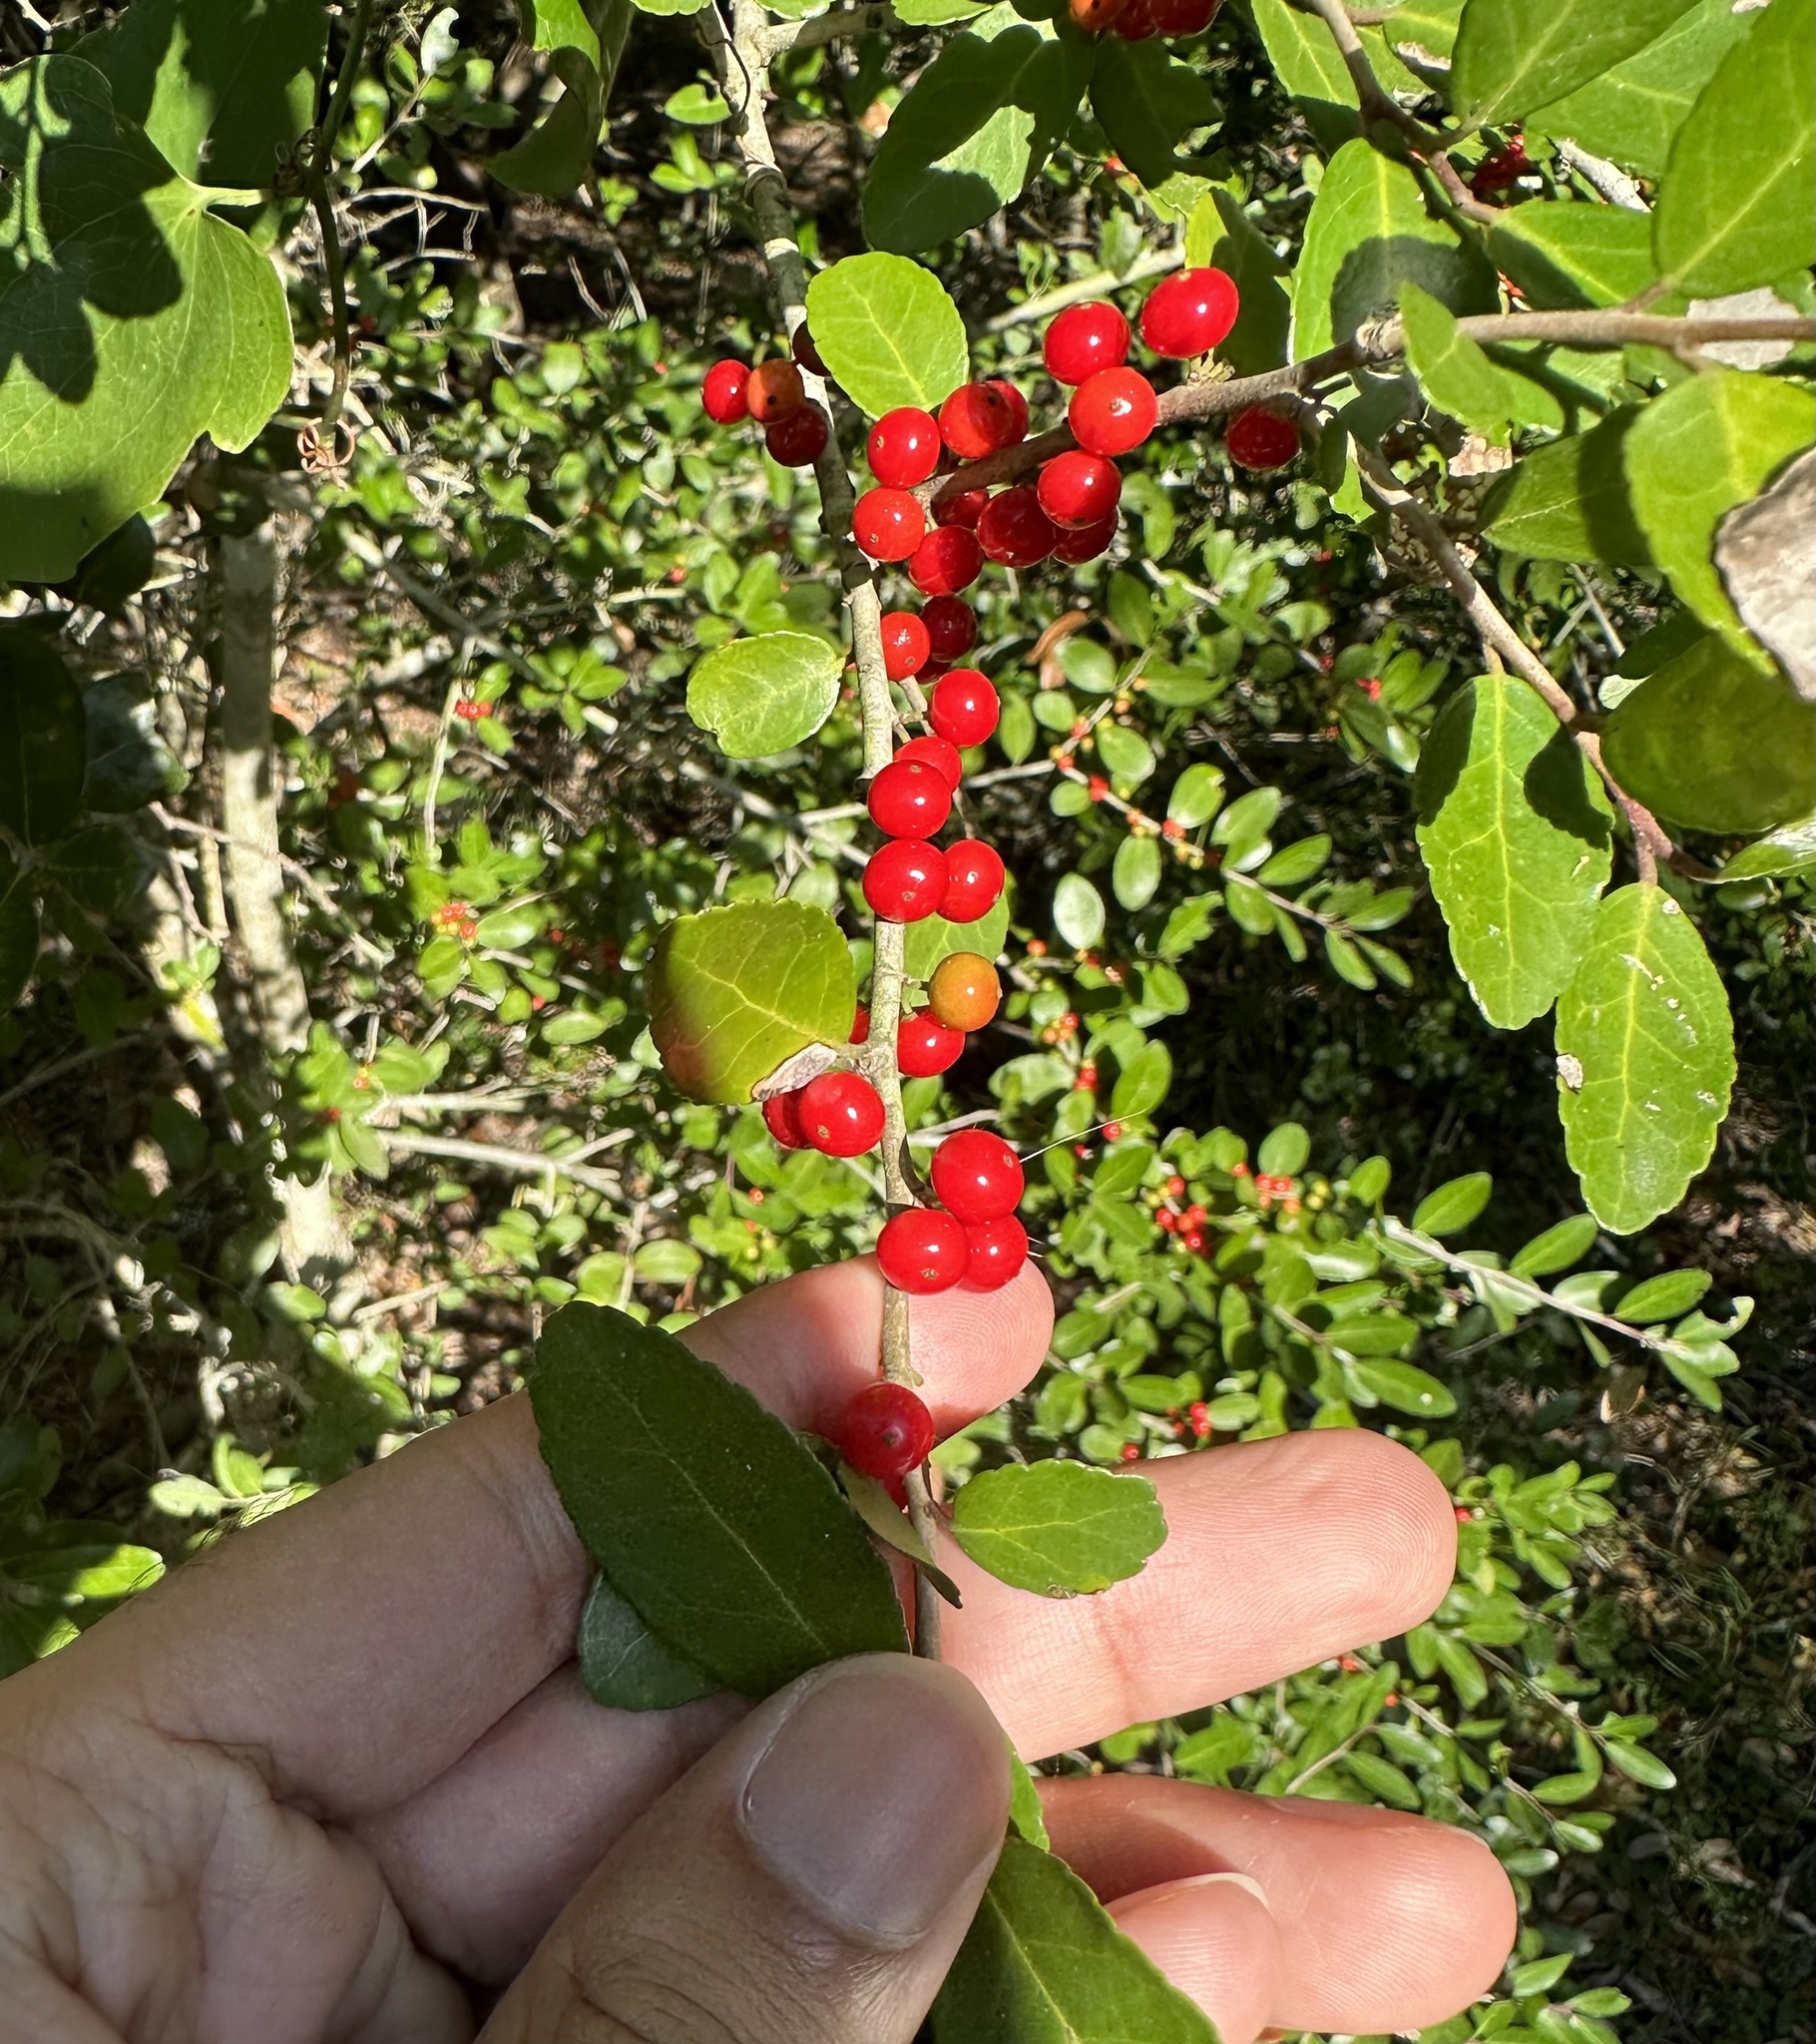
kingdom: Plantae
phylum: Tracheophyta
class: Magnoliopsida
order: Aquifoliales
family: Aquifoliaceae
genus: Ilex
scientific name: Ilex vomitoria
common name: Yaupon holly
